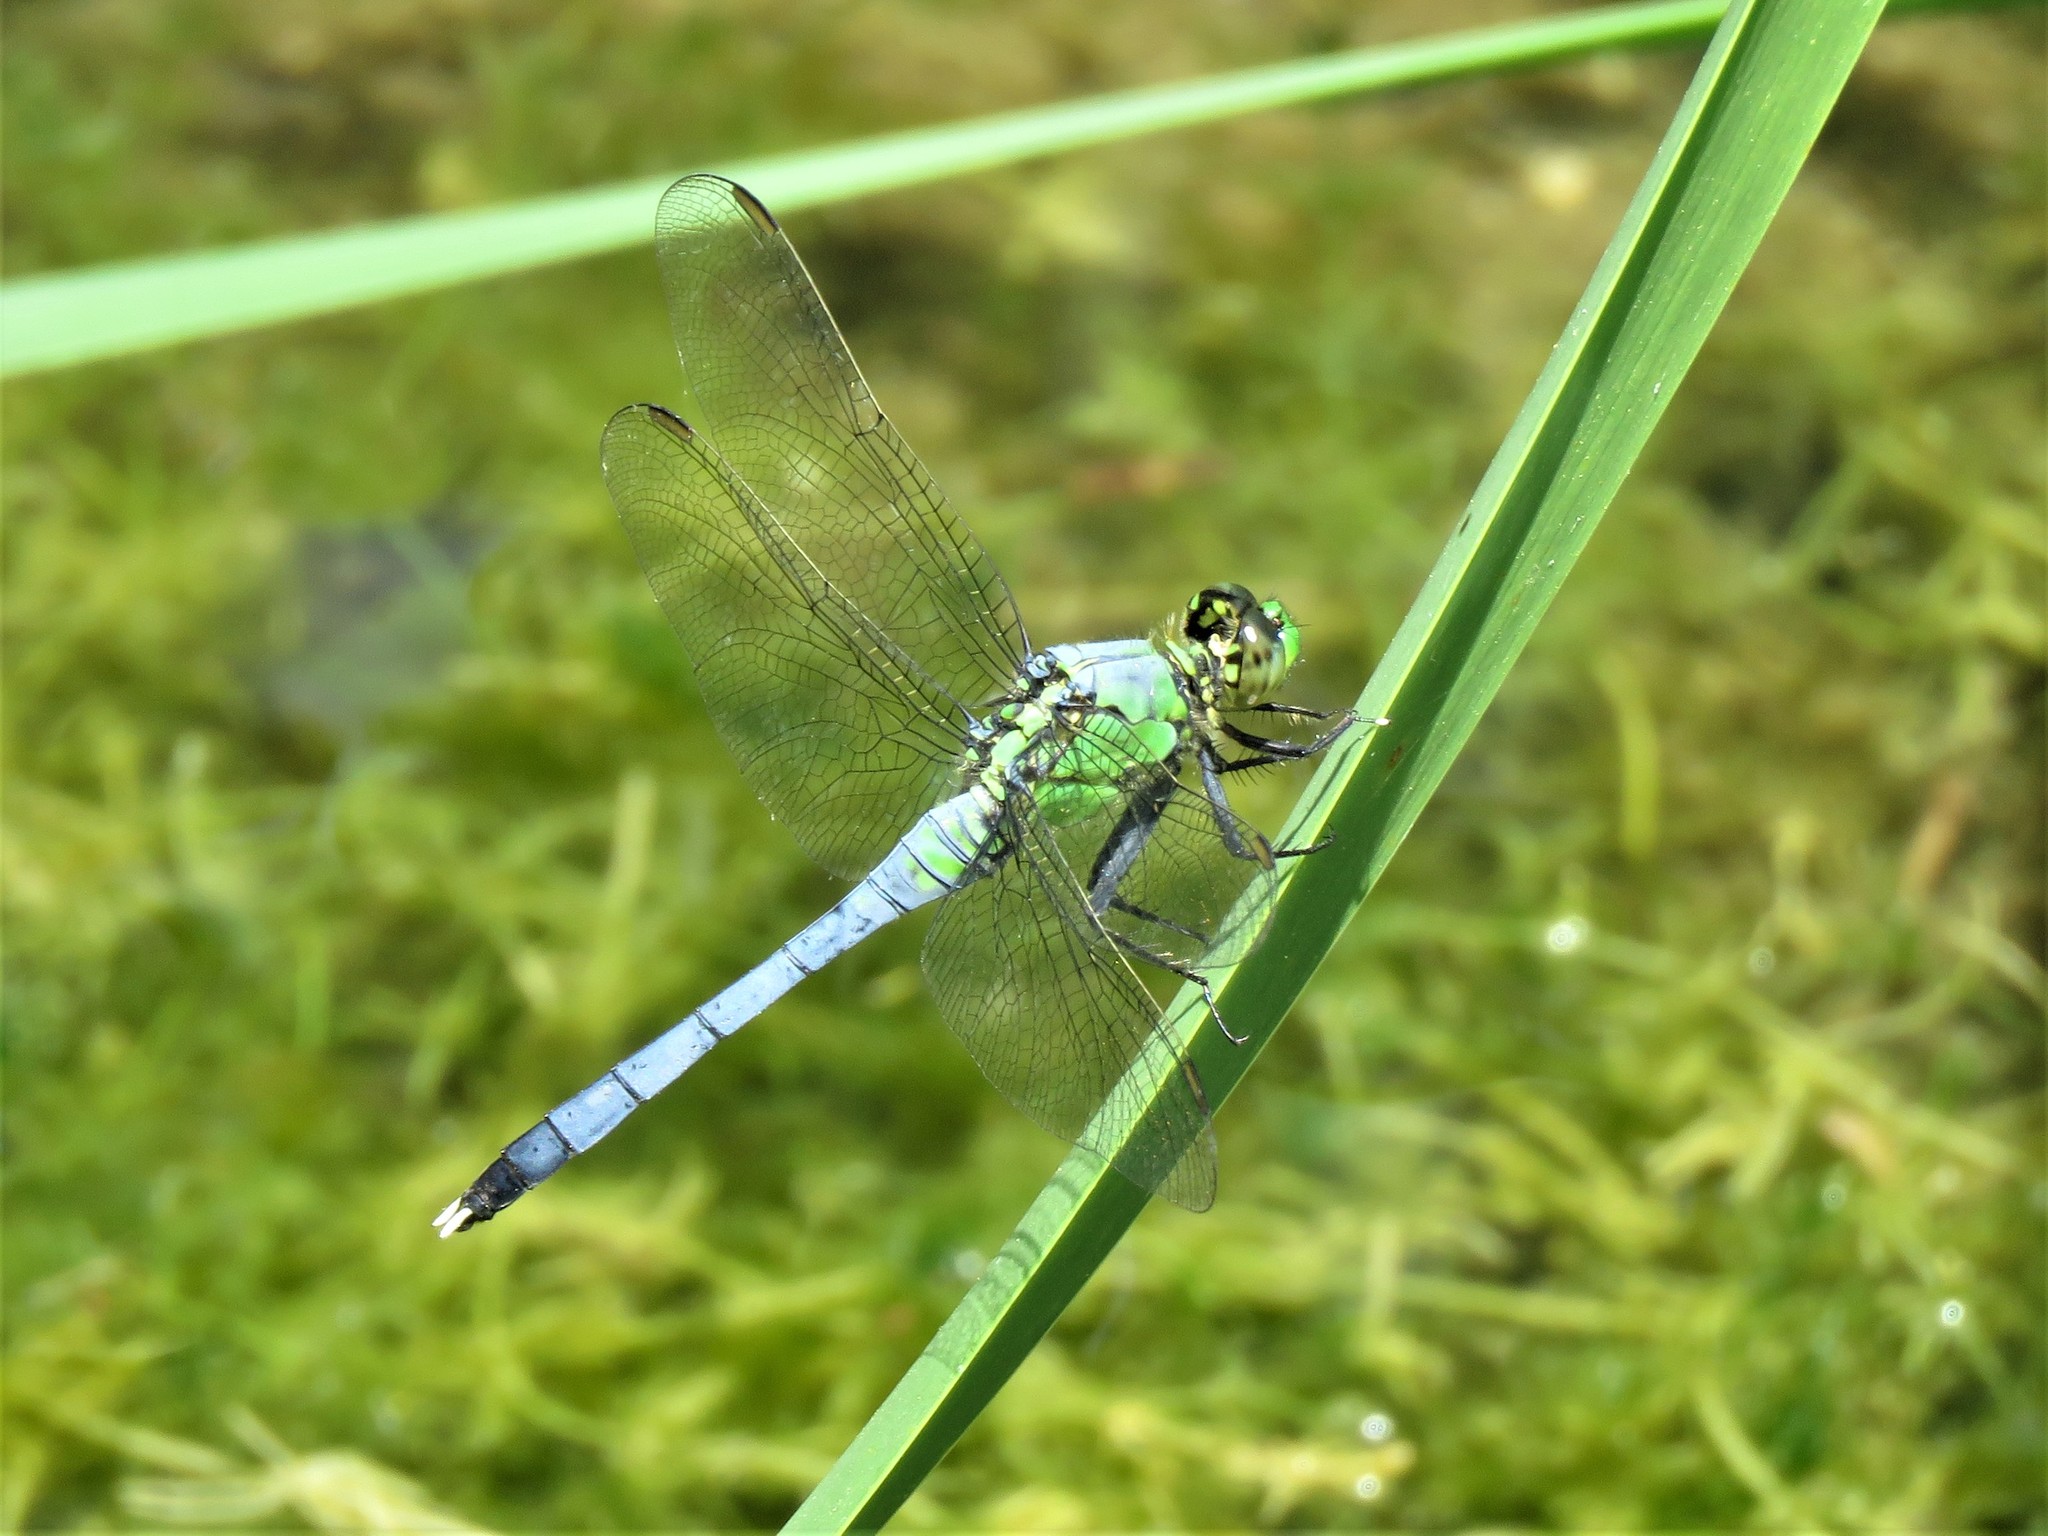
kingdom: Animalia
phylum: Arthropoda
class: Insecta
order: Odonata
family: Libellulidae
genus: Erythemis
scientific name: Erythemis simplicicollis
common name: Eastern pondhawk
